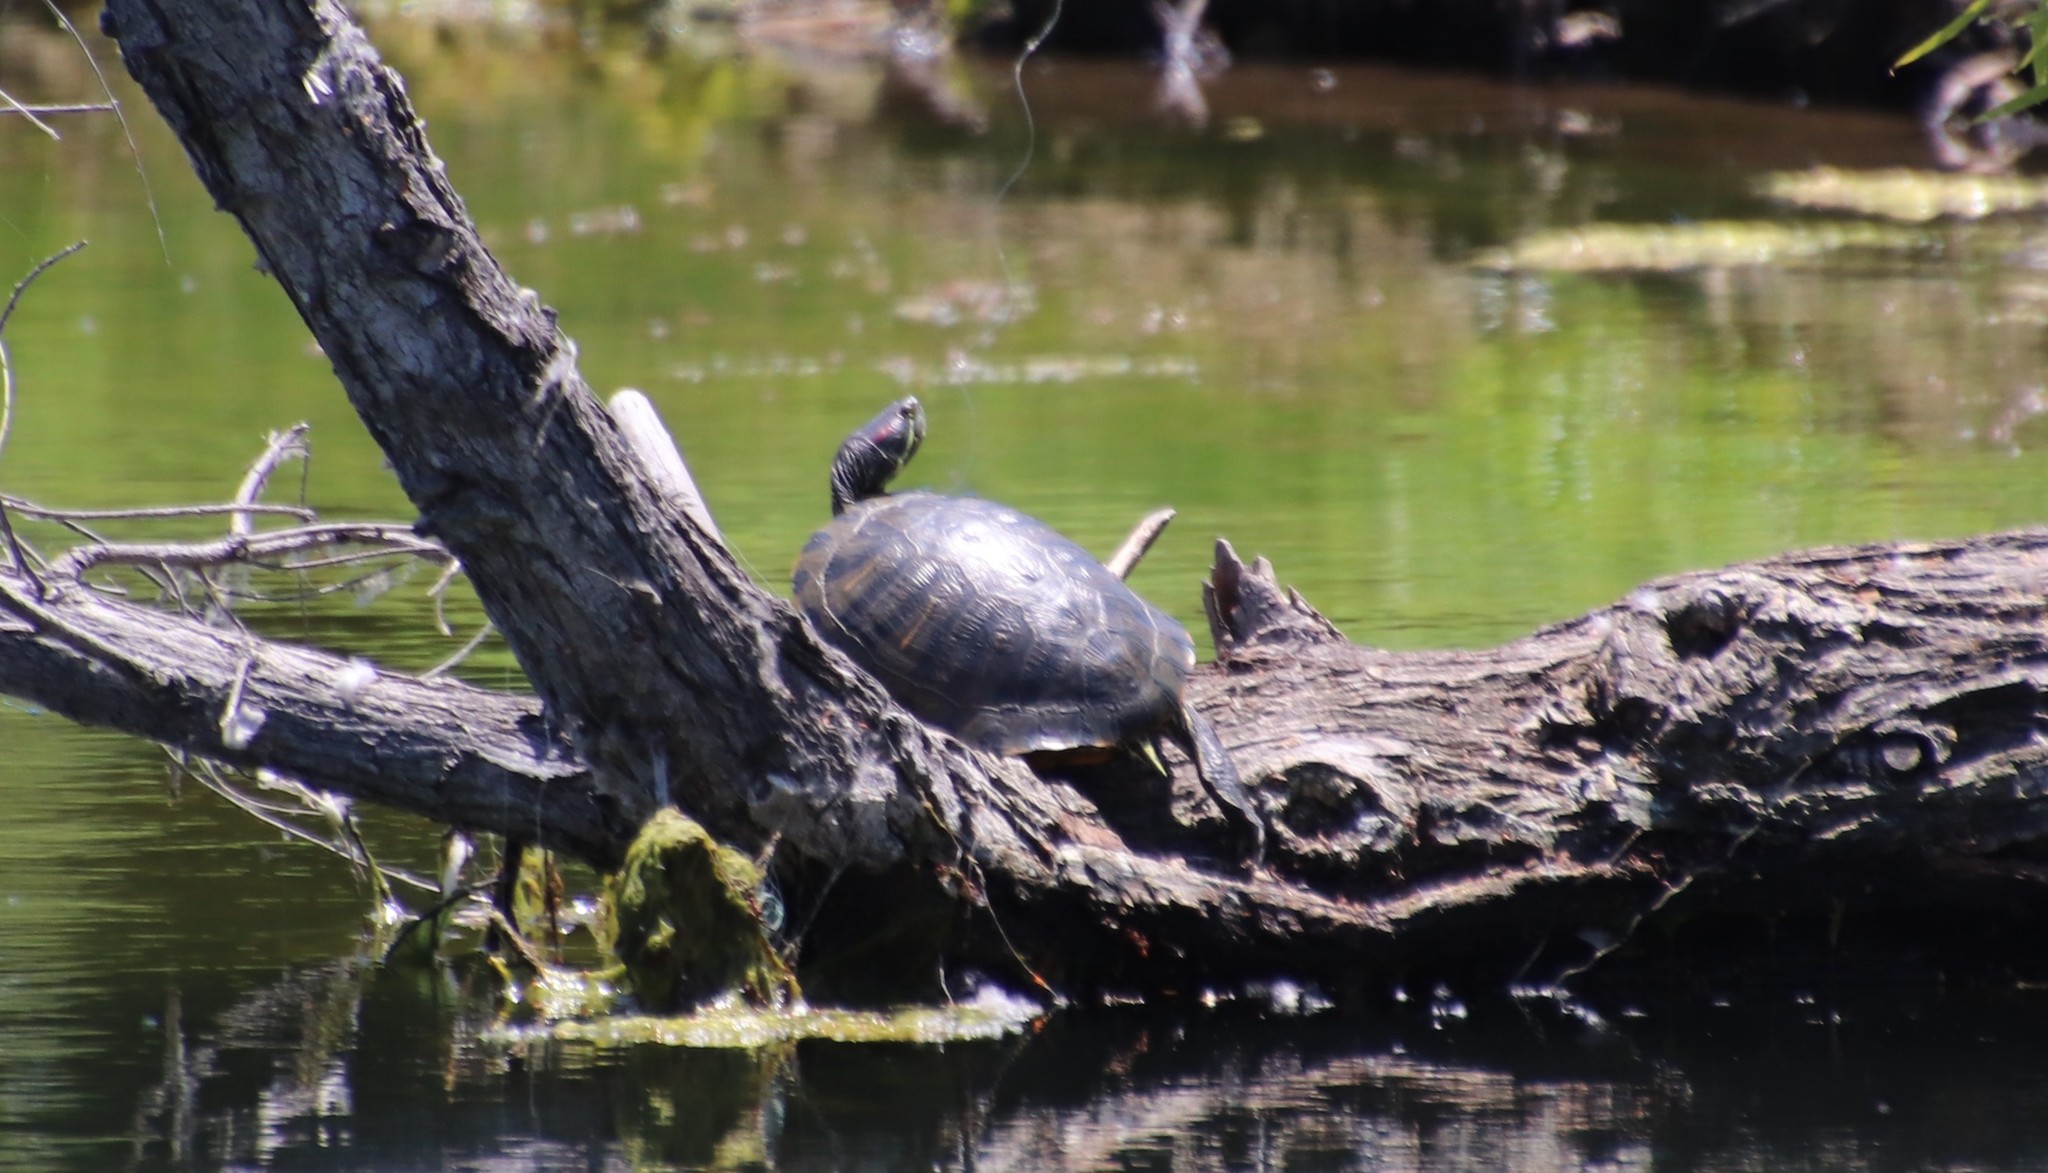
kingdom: Animalia
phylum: Chordata
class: Testudines
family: Emydidae
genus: Trachemys
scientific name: Trachemys scripta
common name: Slider
